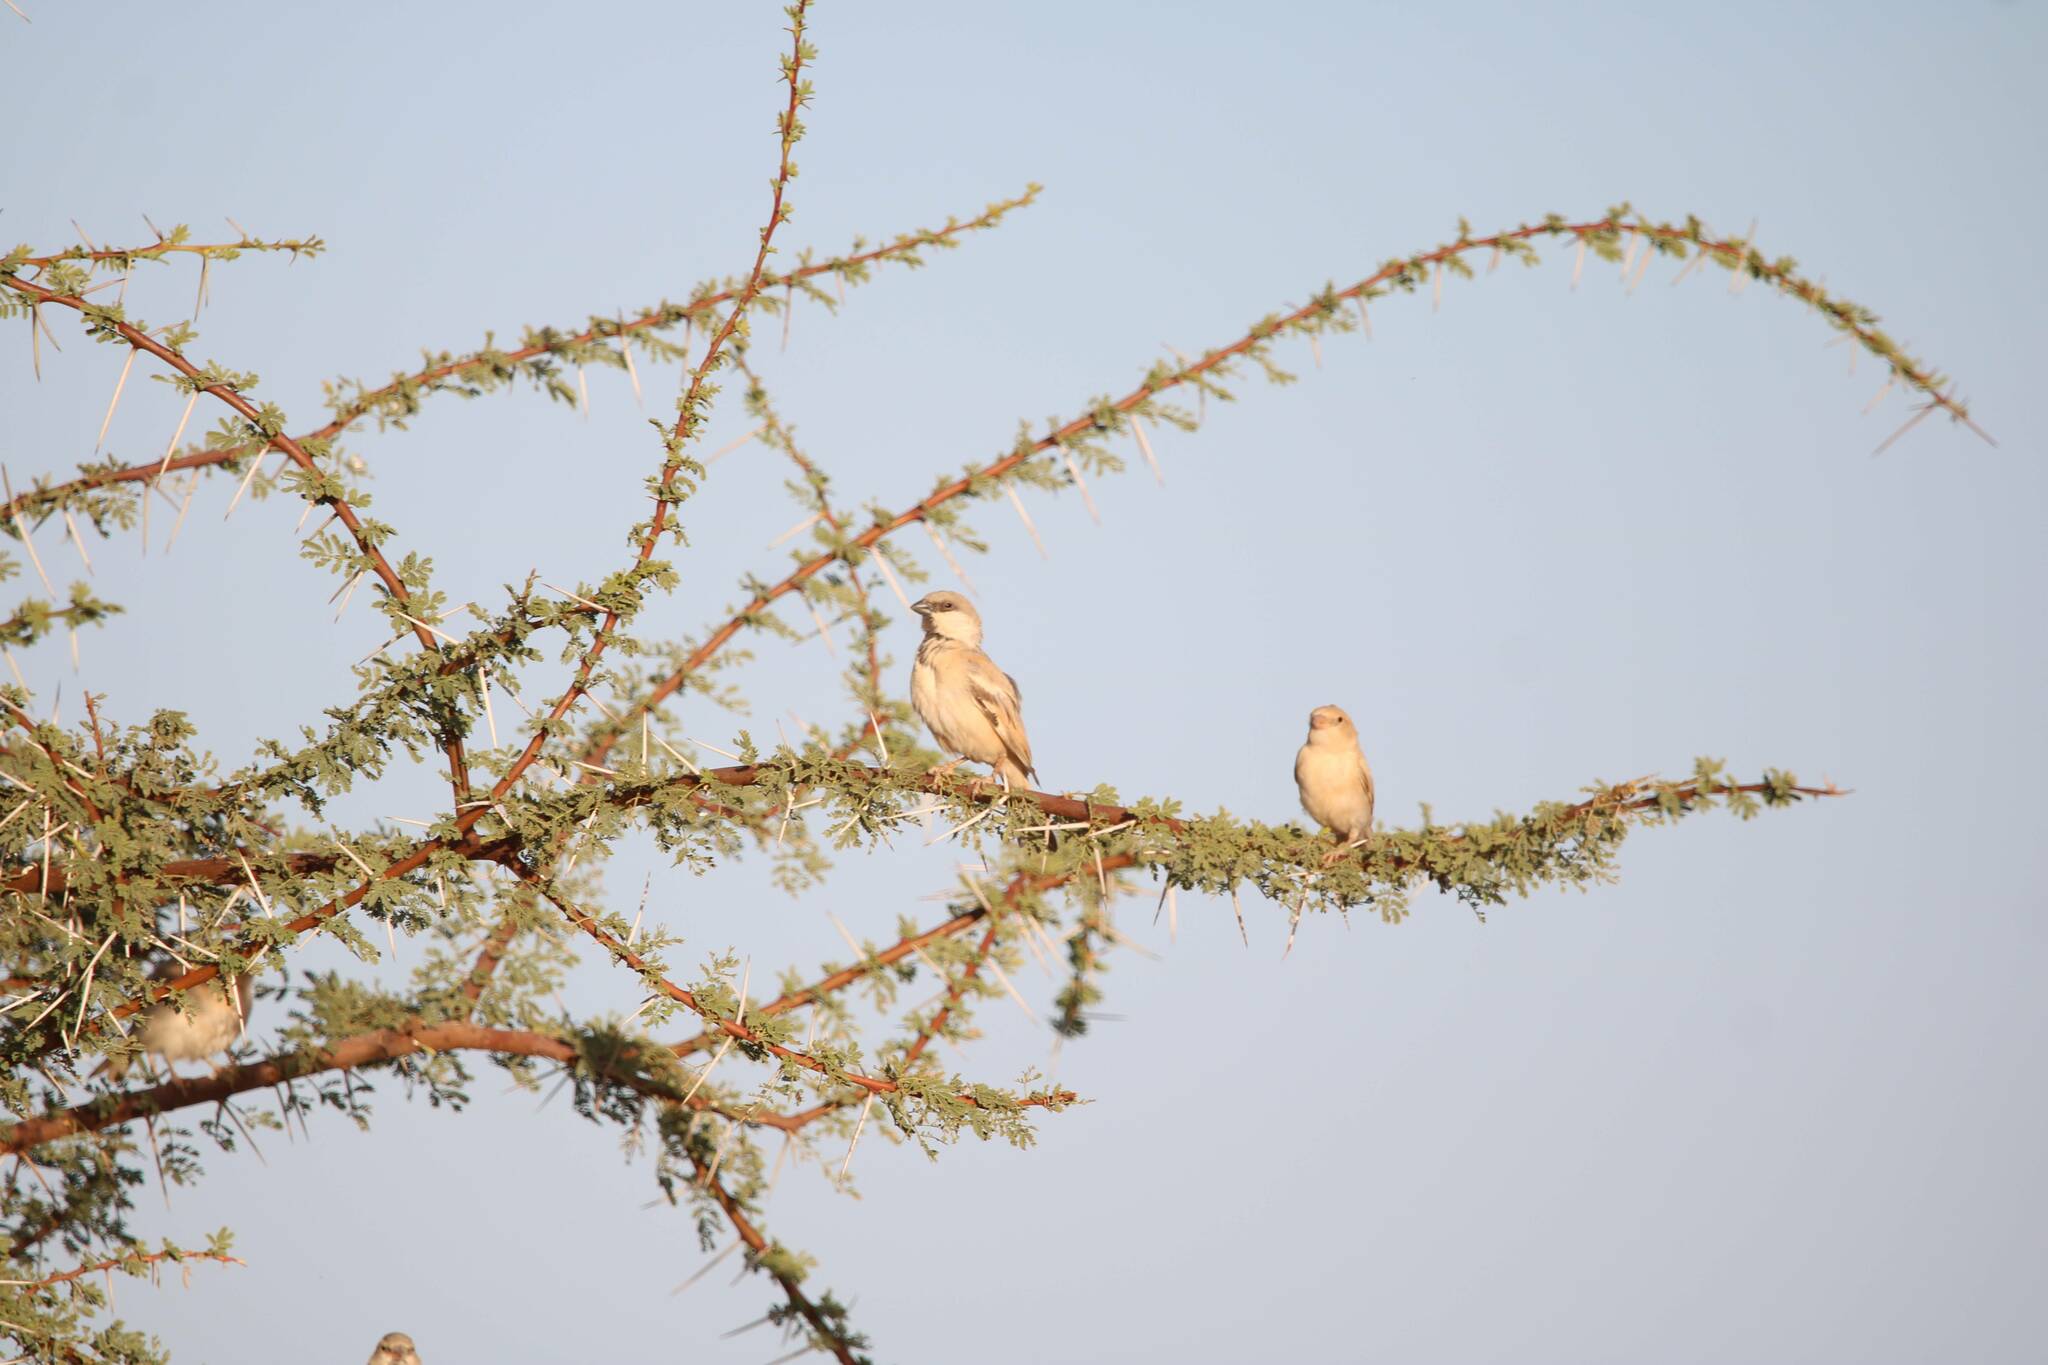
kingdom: Animalia
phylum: Chordata
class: Aves
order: Passeriformes
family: Passeridae
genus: Passer
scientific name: Passer simplex
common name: Desert sparrow
